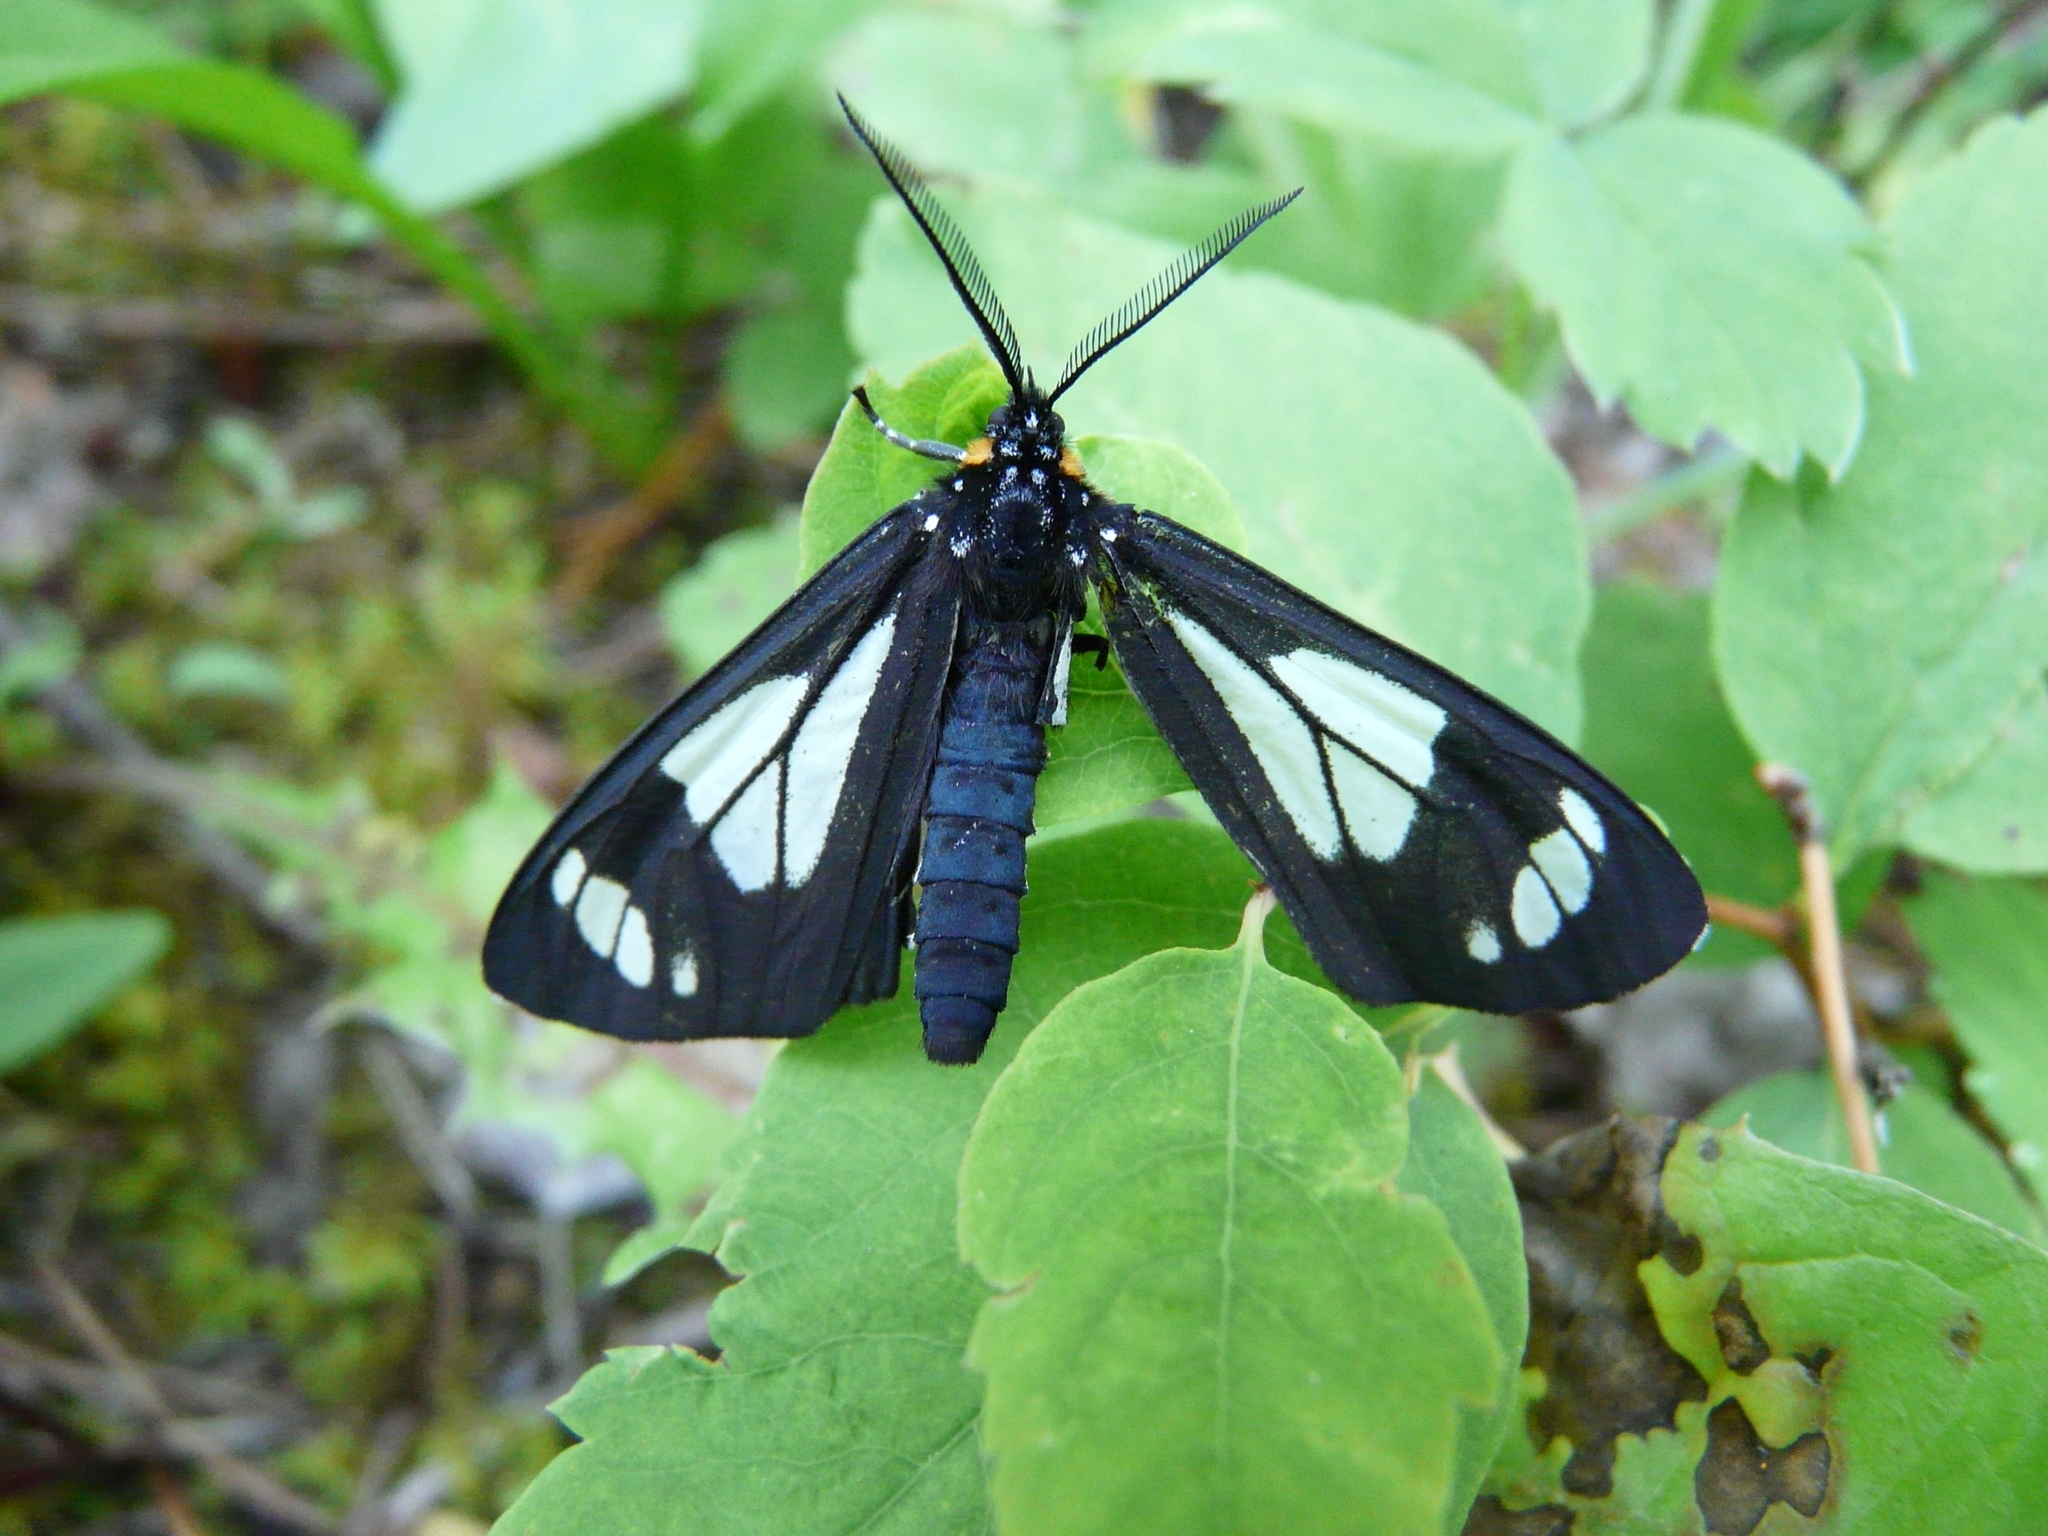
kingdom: Animalia
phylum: Arthropoda
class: Insecta
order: Lepidoptera
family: Erebidae
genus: Gnophaela
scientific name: Gnophaela vermiculata
